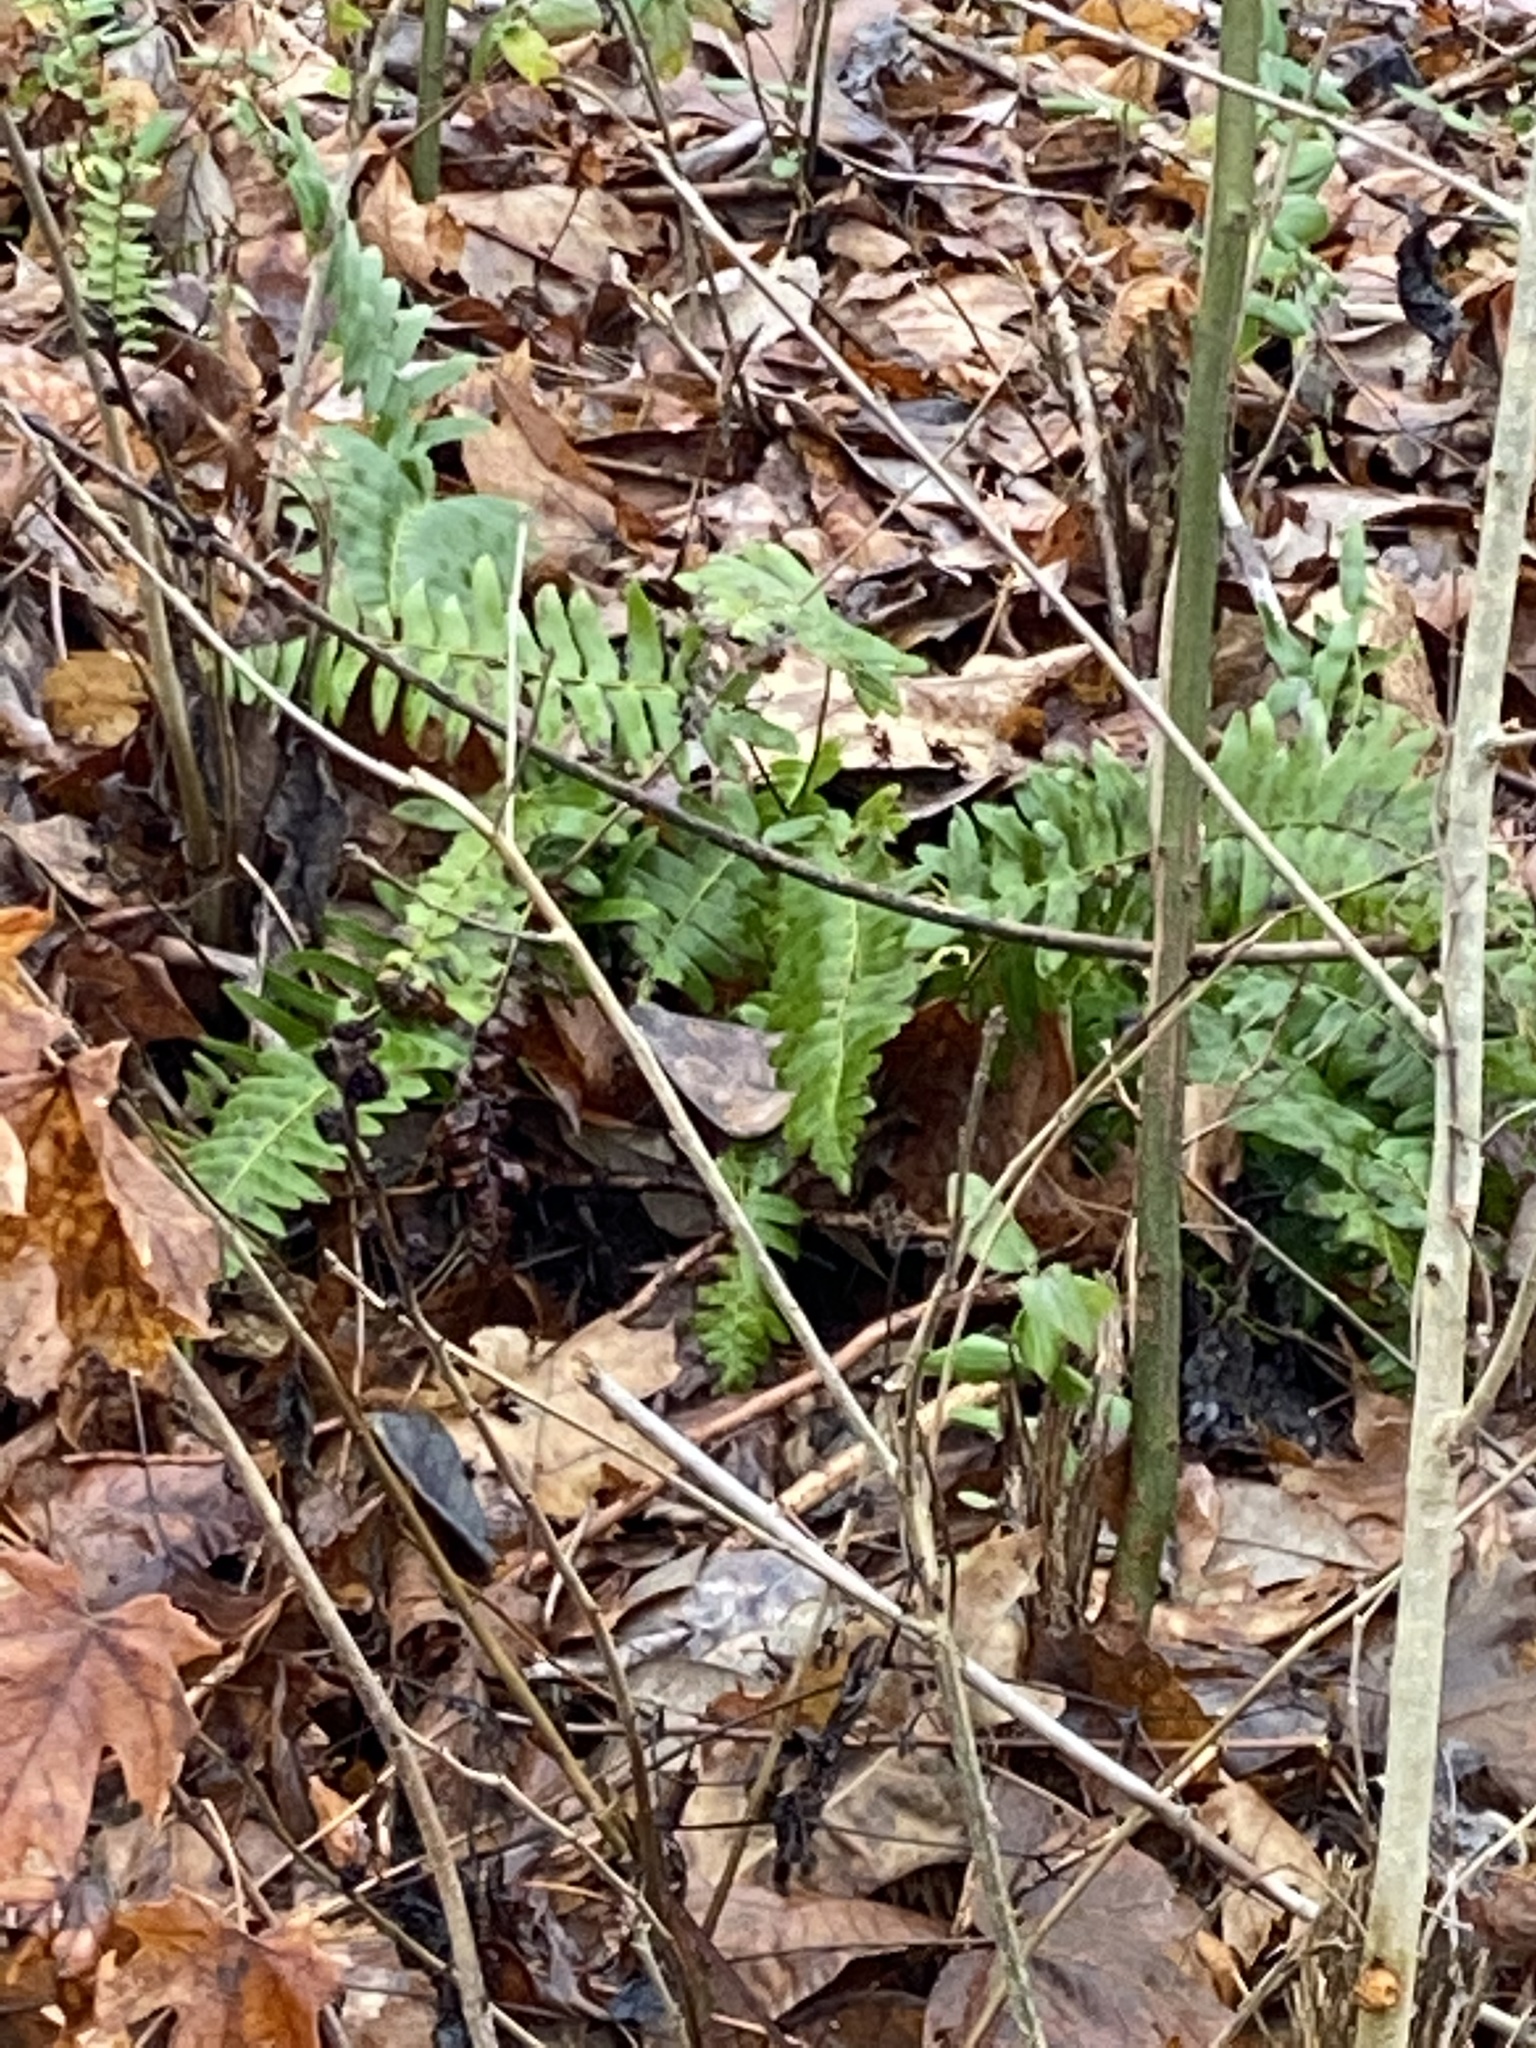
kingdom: Plantae
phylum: Tracheophyta
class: Polypodiopsida
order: Polypodiales
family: Dryopteridaceae
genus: Polystichum
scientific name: Polystichum acrostichoides
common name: Christmas fern
